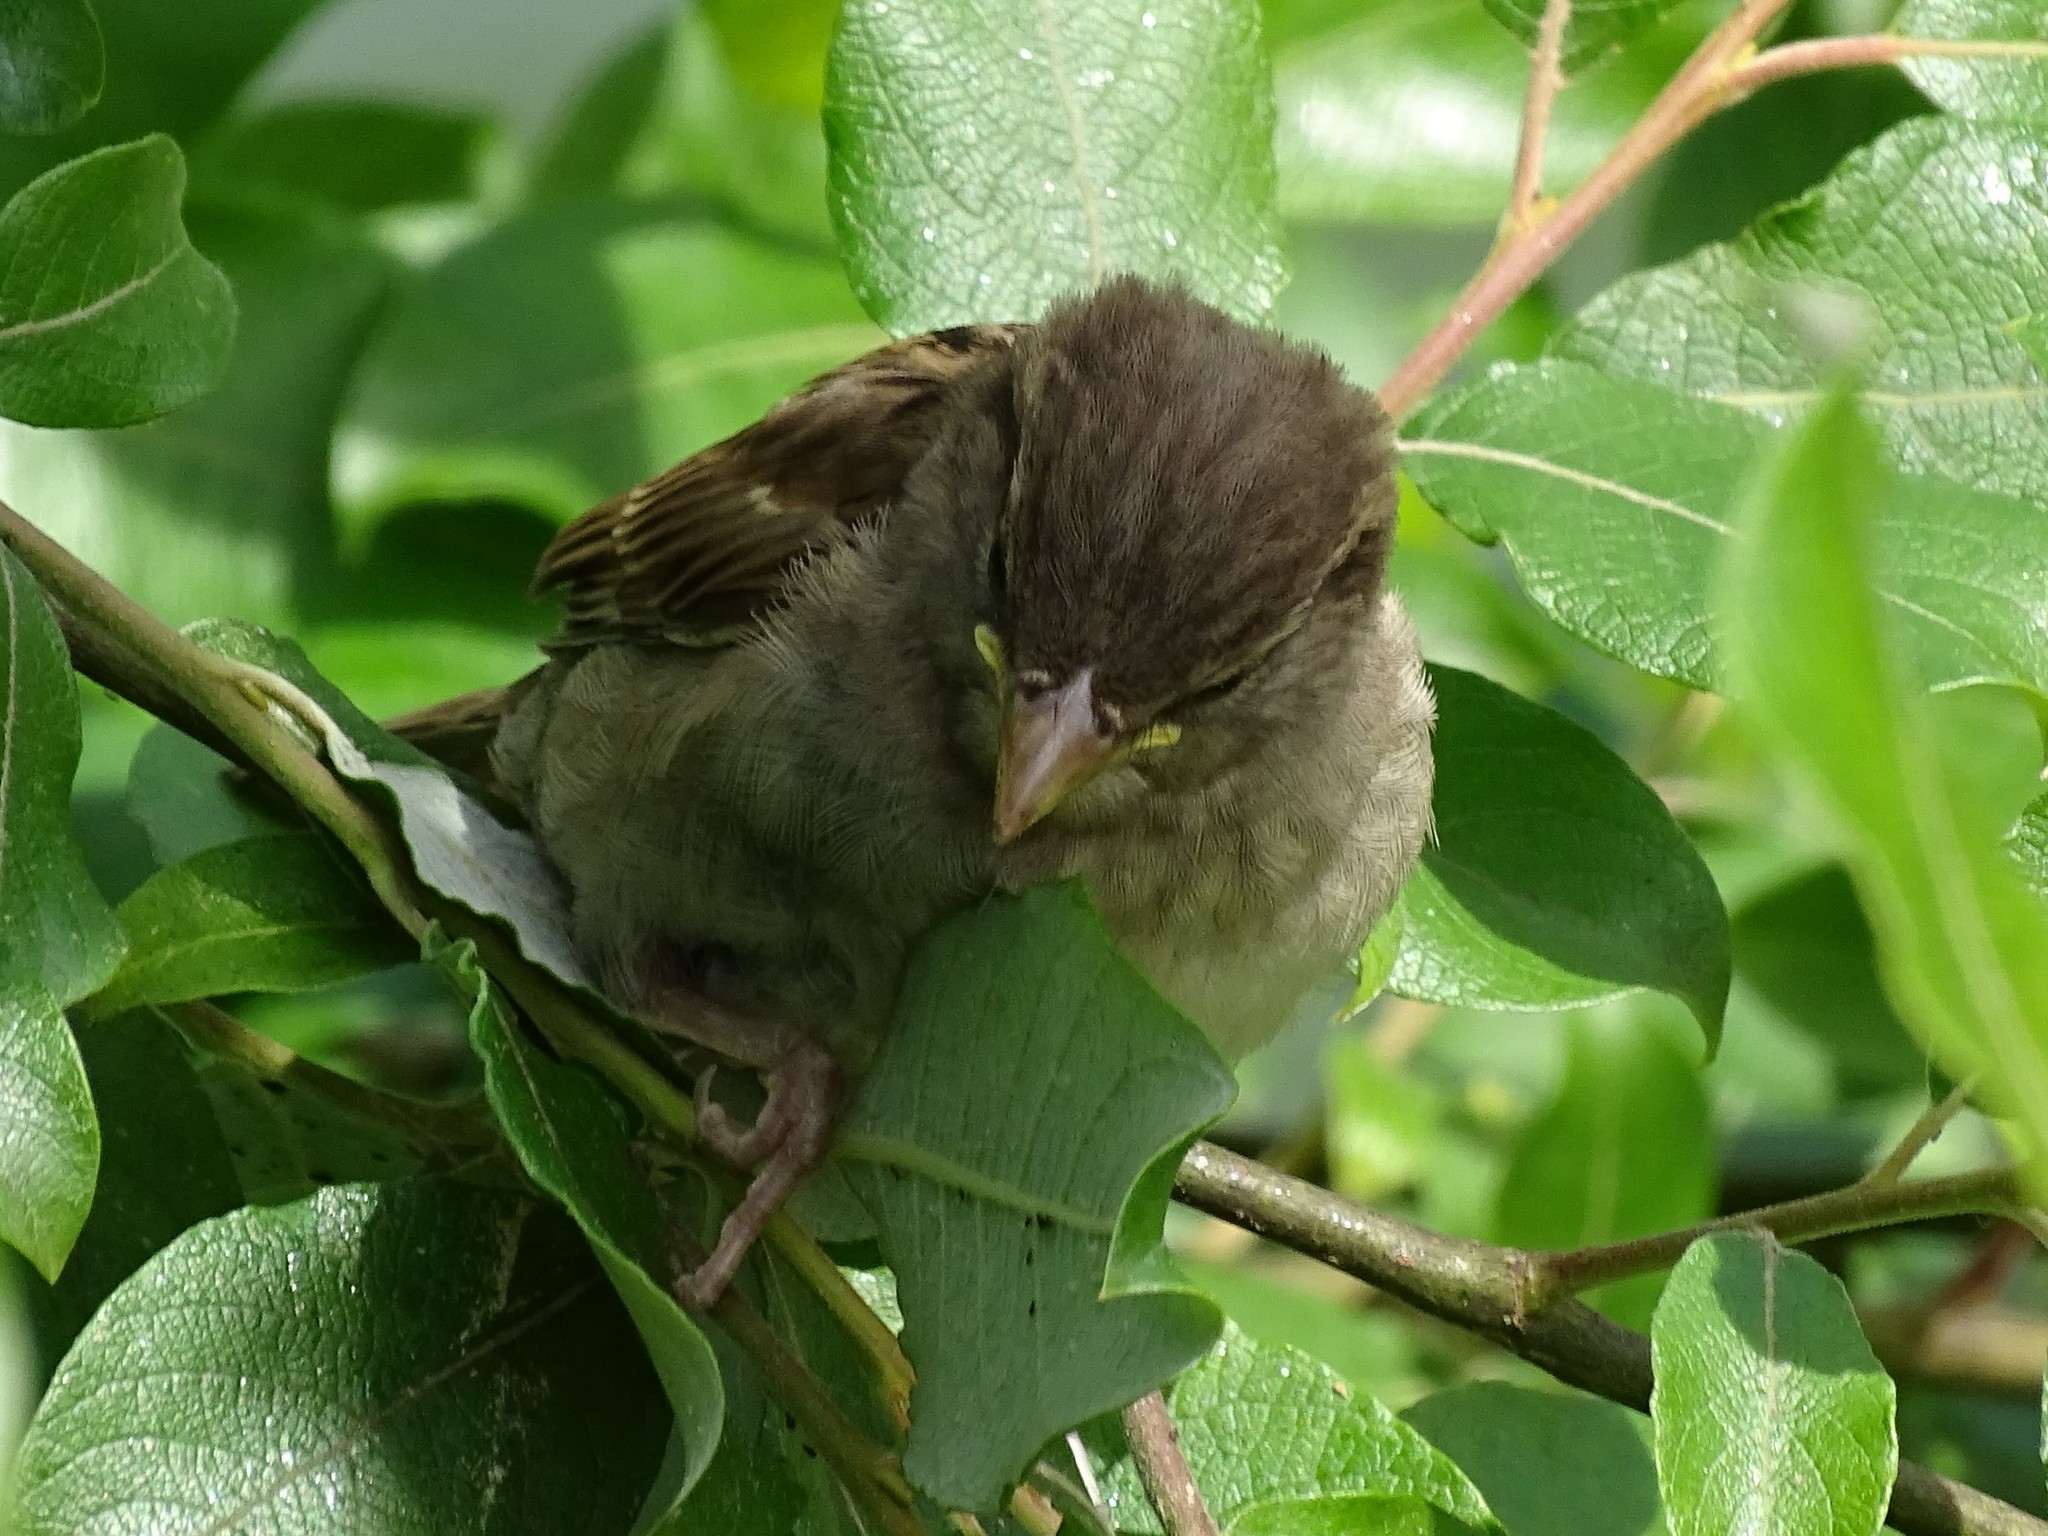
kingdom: Animalia
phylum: Chordata
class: Aves
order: Passeriformes
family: Passeridae
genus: Passer
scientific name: Passer domesticus
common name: House sparrow
